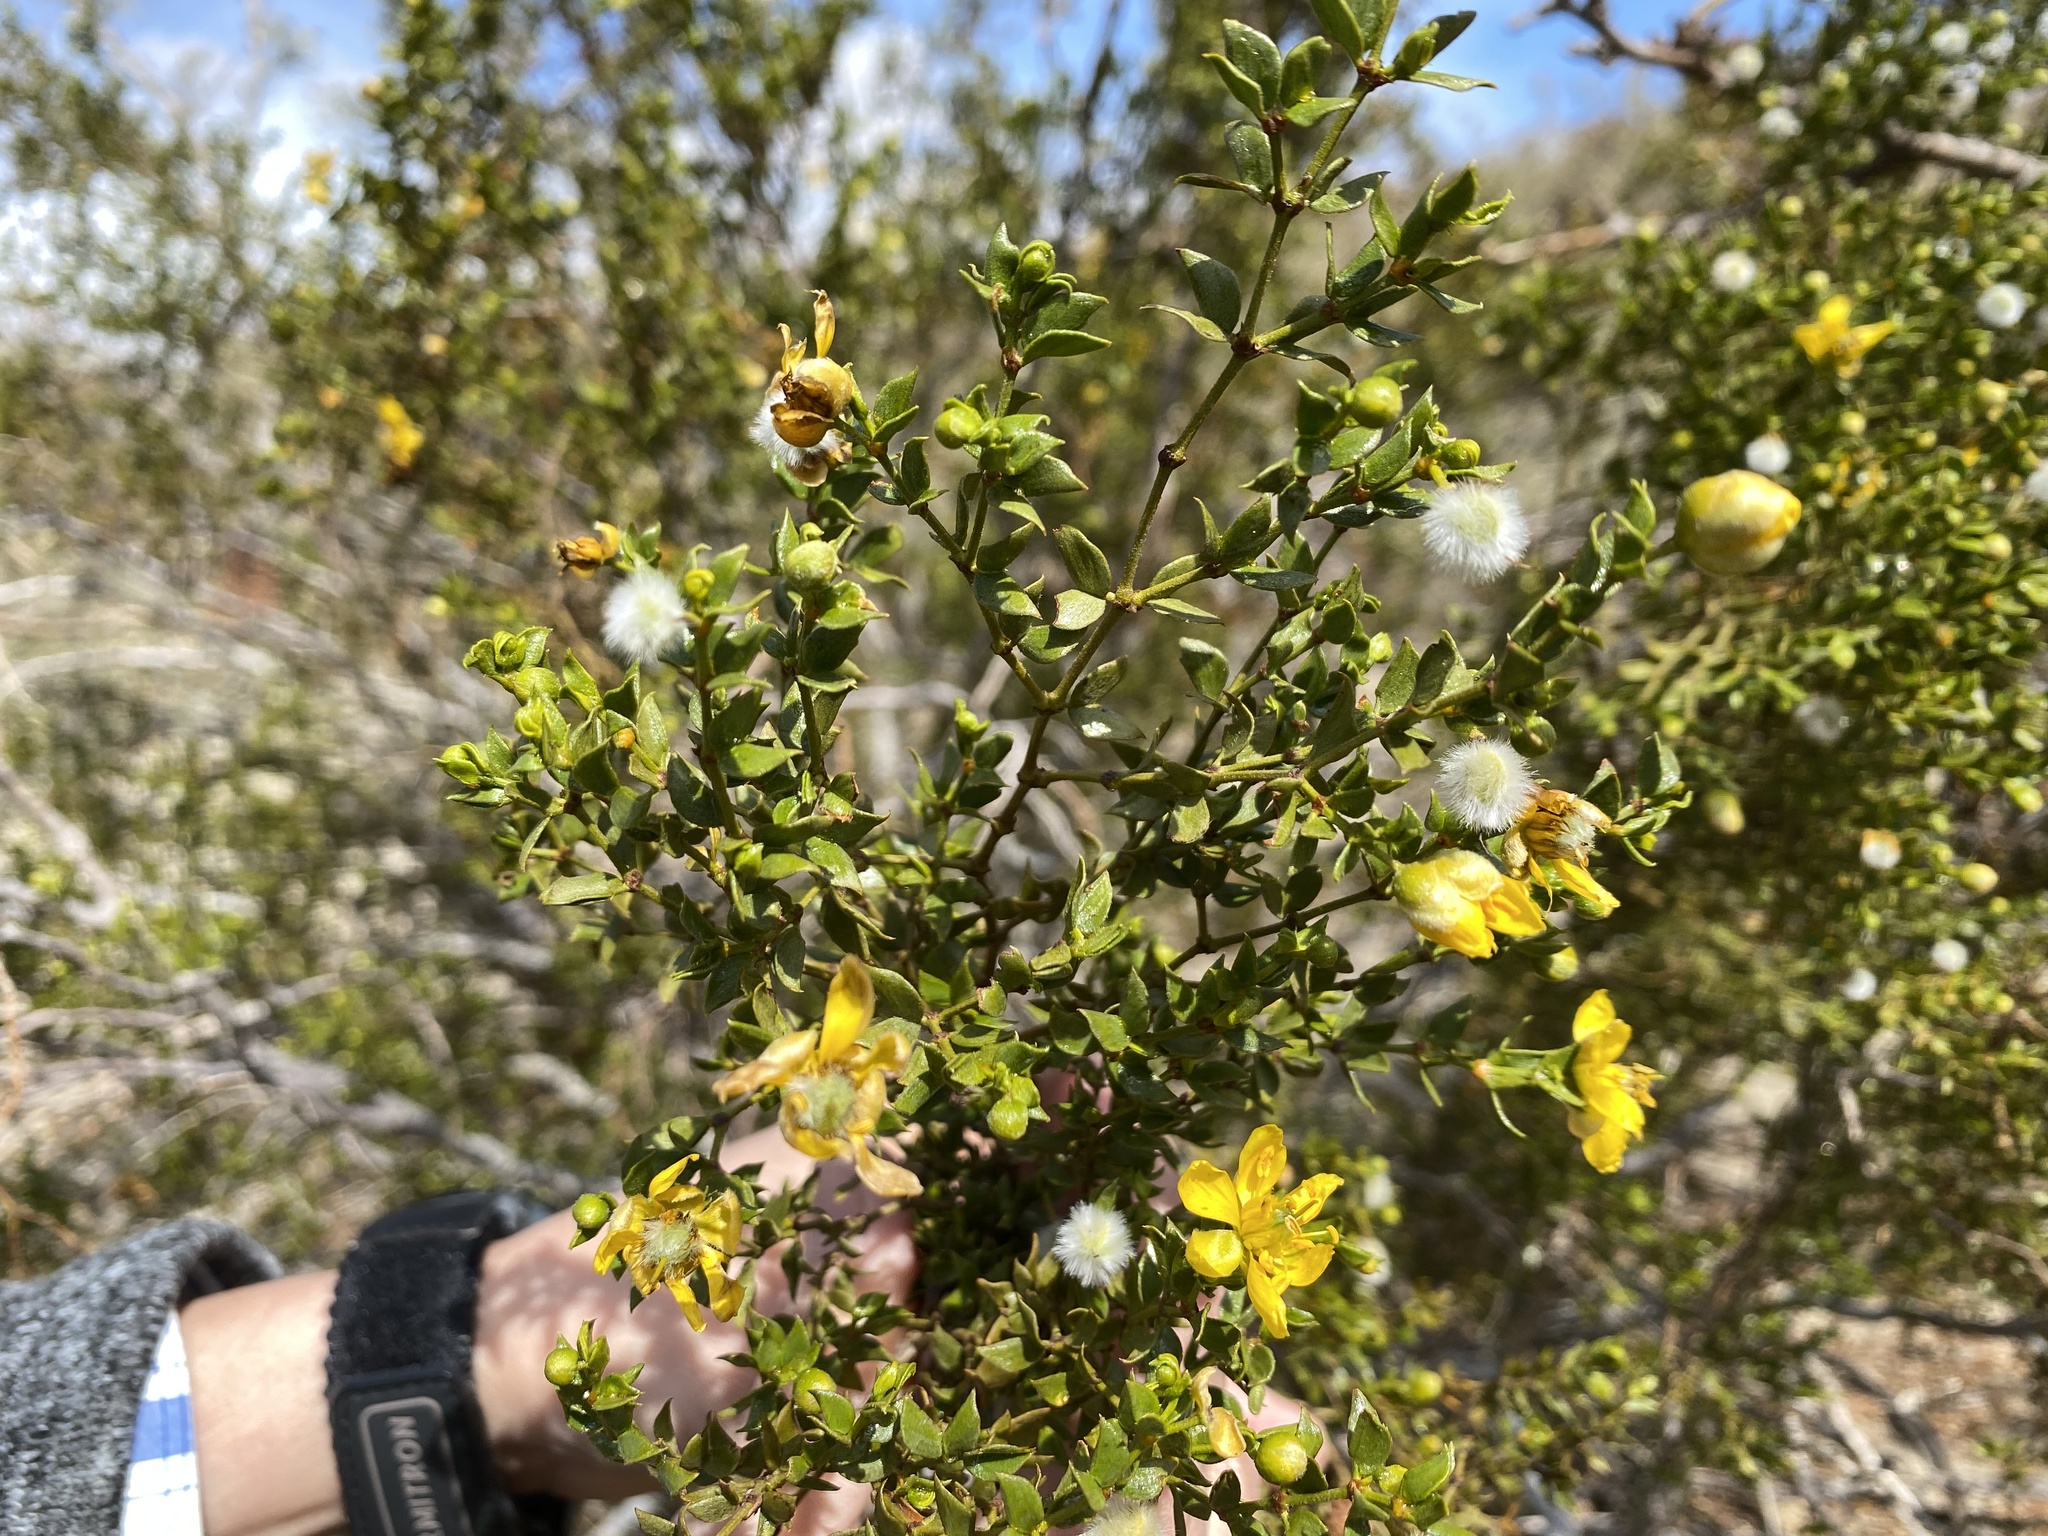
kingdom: Plantae
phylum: Tracheophyta
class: Magnoliopsida
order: Zygophyllales
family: Zygophyllaceae
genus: Larrea
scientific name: Larrea tridentata
